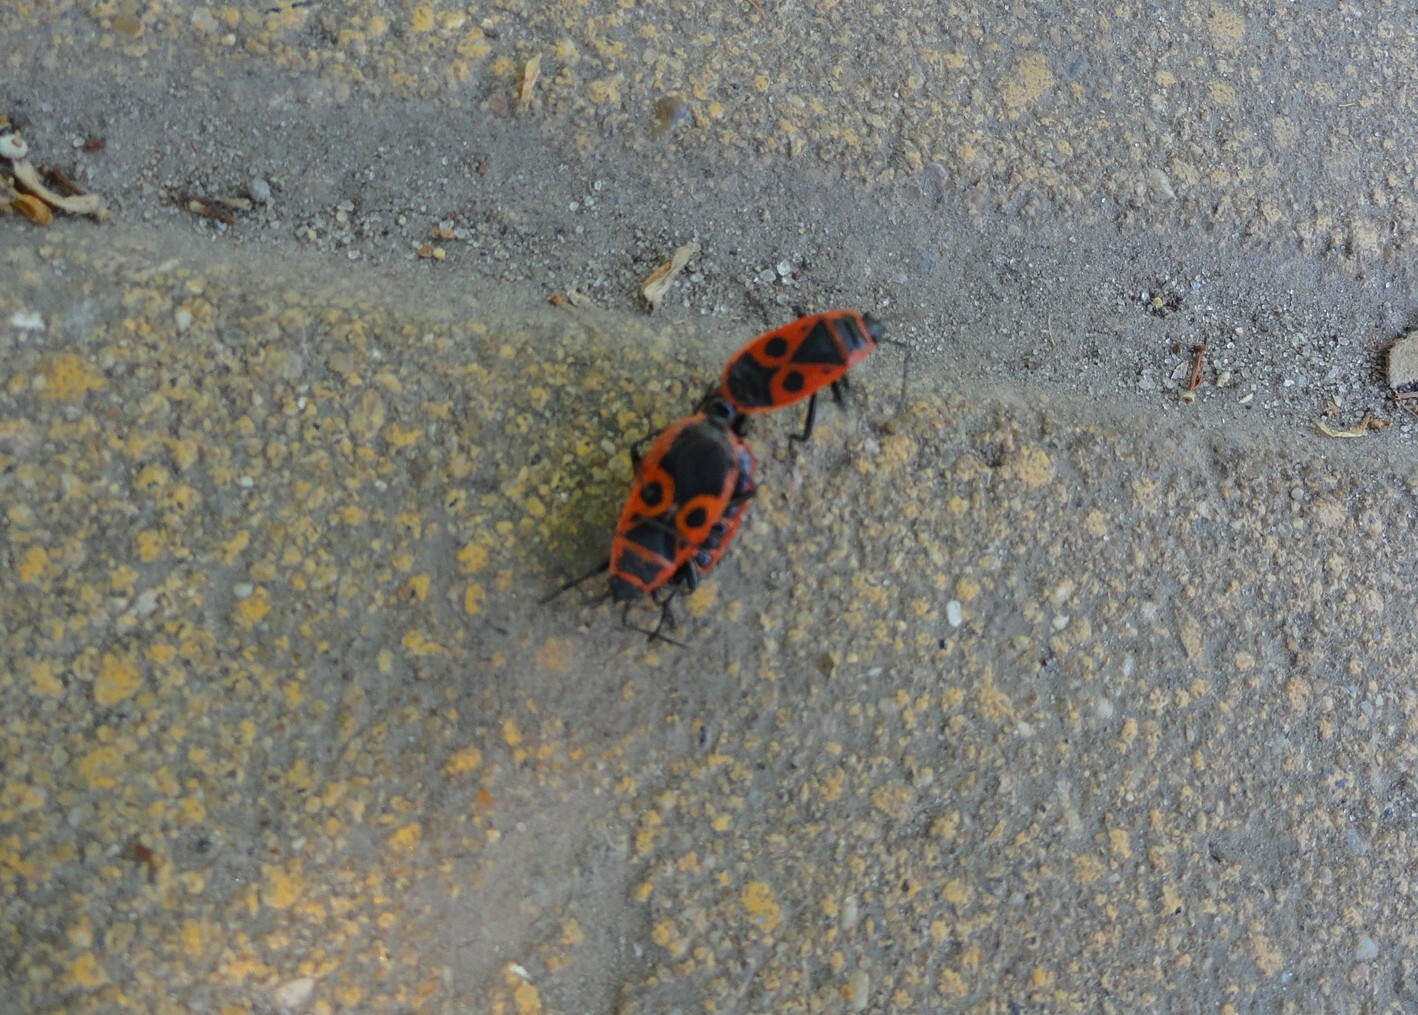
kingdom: Animalia
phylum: Arthropoda
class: Insecta
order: Hemiptera
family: Pyrrhocoridae
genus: Pyrrhocoris
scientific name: Pyrrhocoris apterus
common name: Firebug
